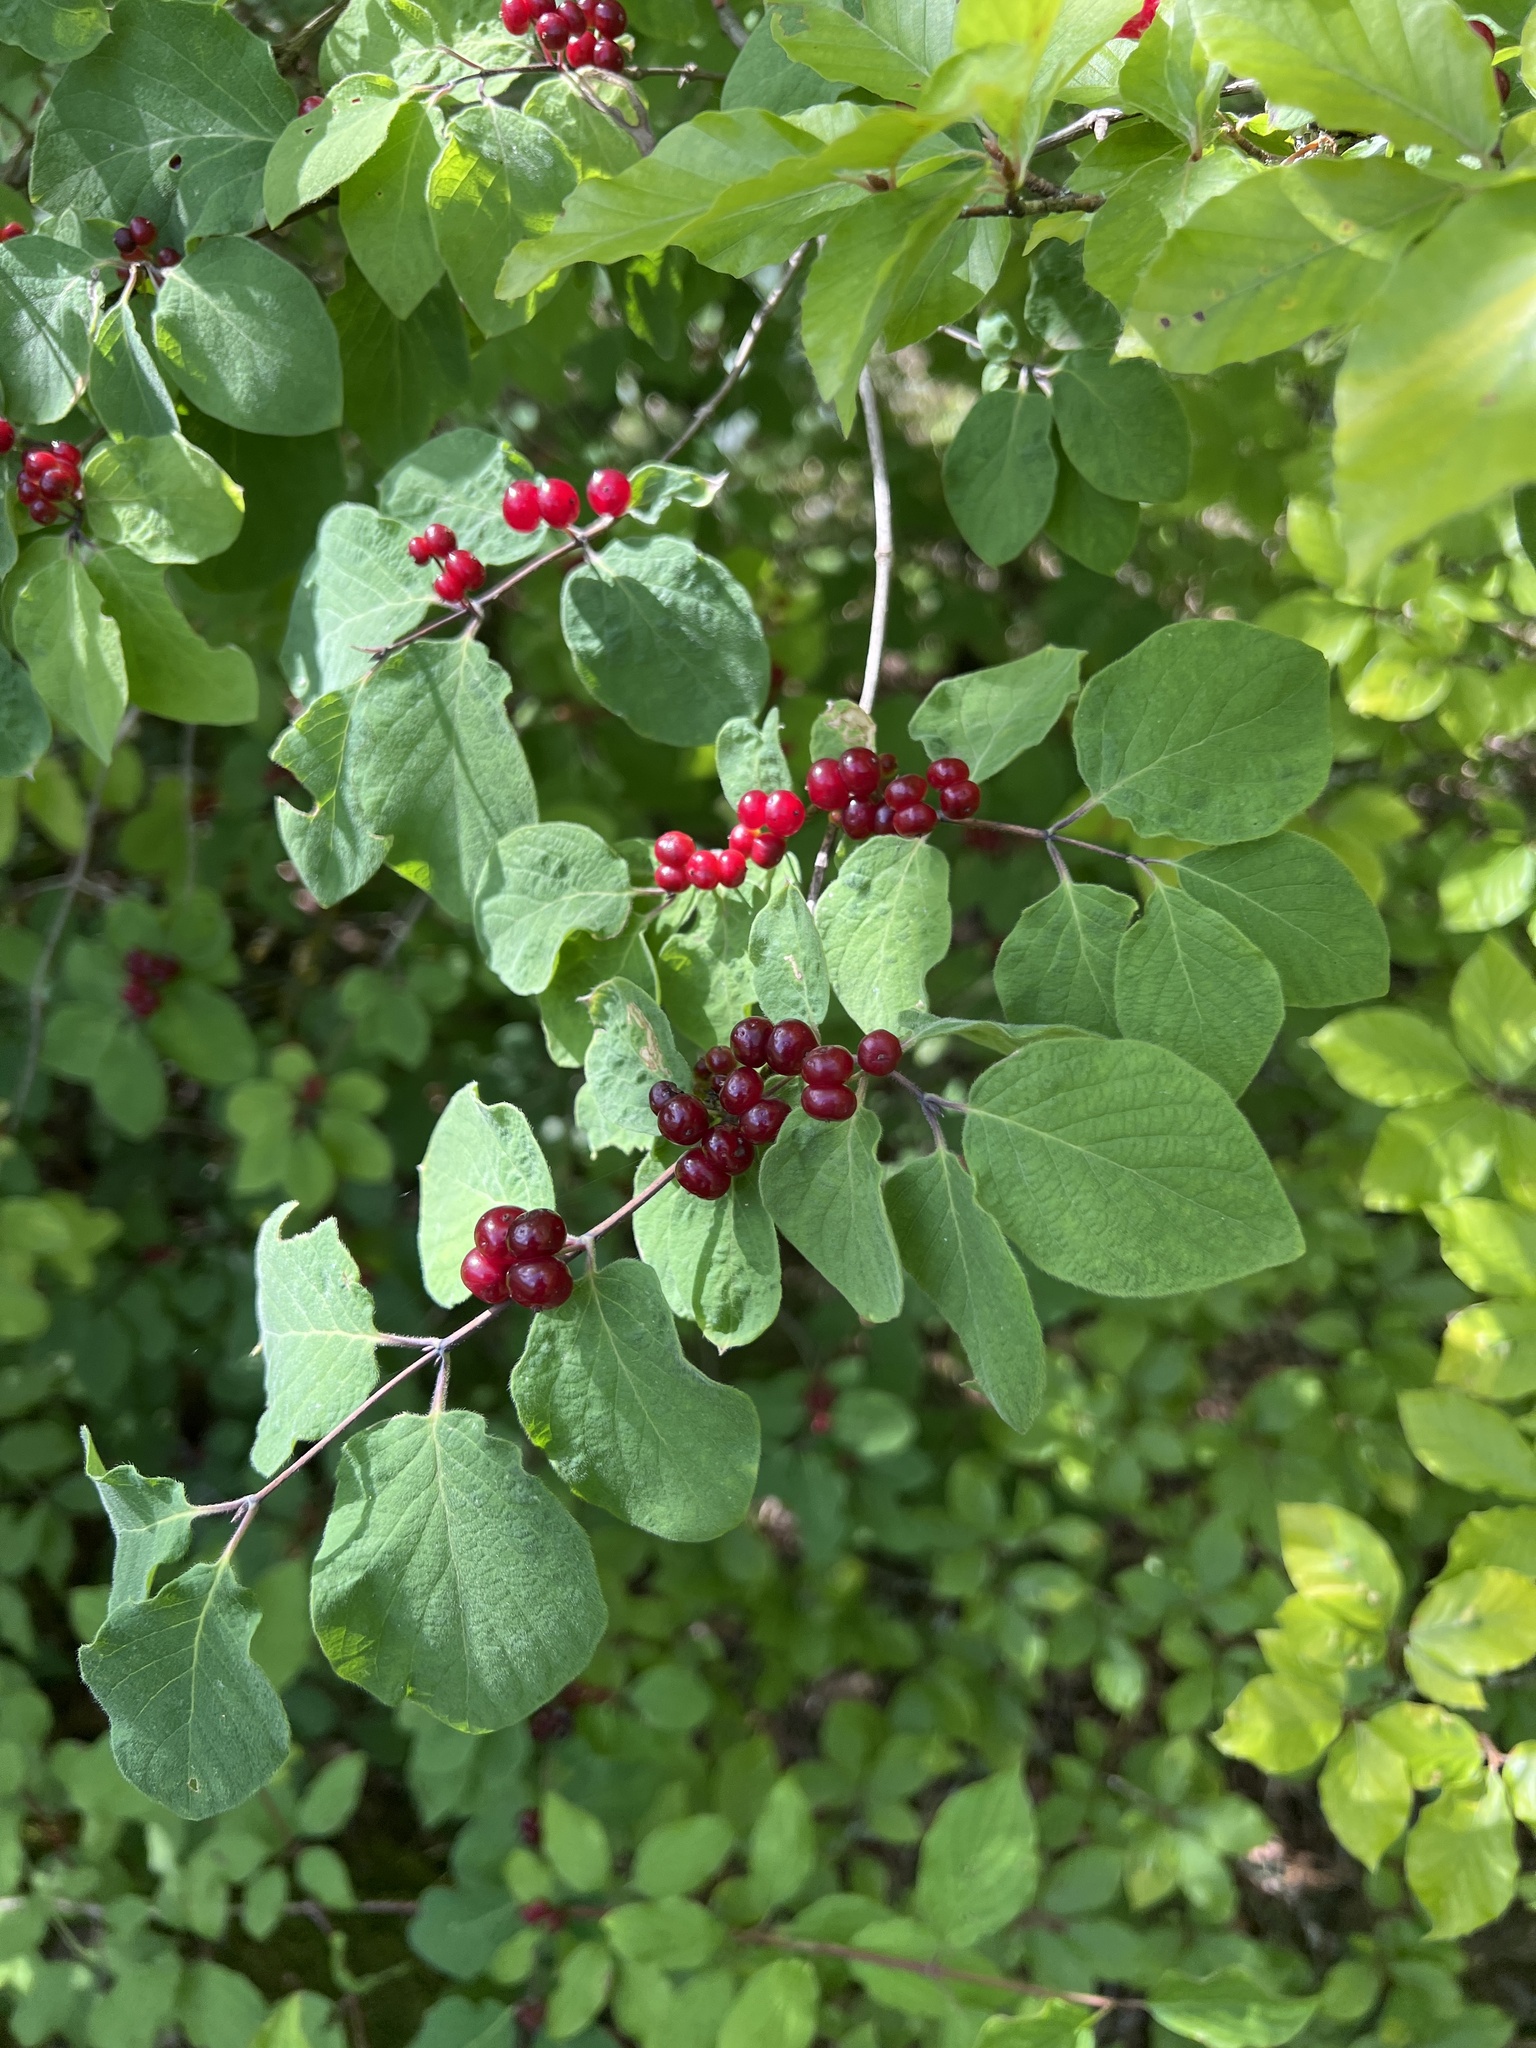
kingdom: Plantae
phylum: Tracheophyta
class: Magnoliopsida
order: Dipsacales
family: Caprifoliaceae
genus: Lonicera
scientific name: Lonicera xylosteum
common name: Fly honeysuckle
